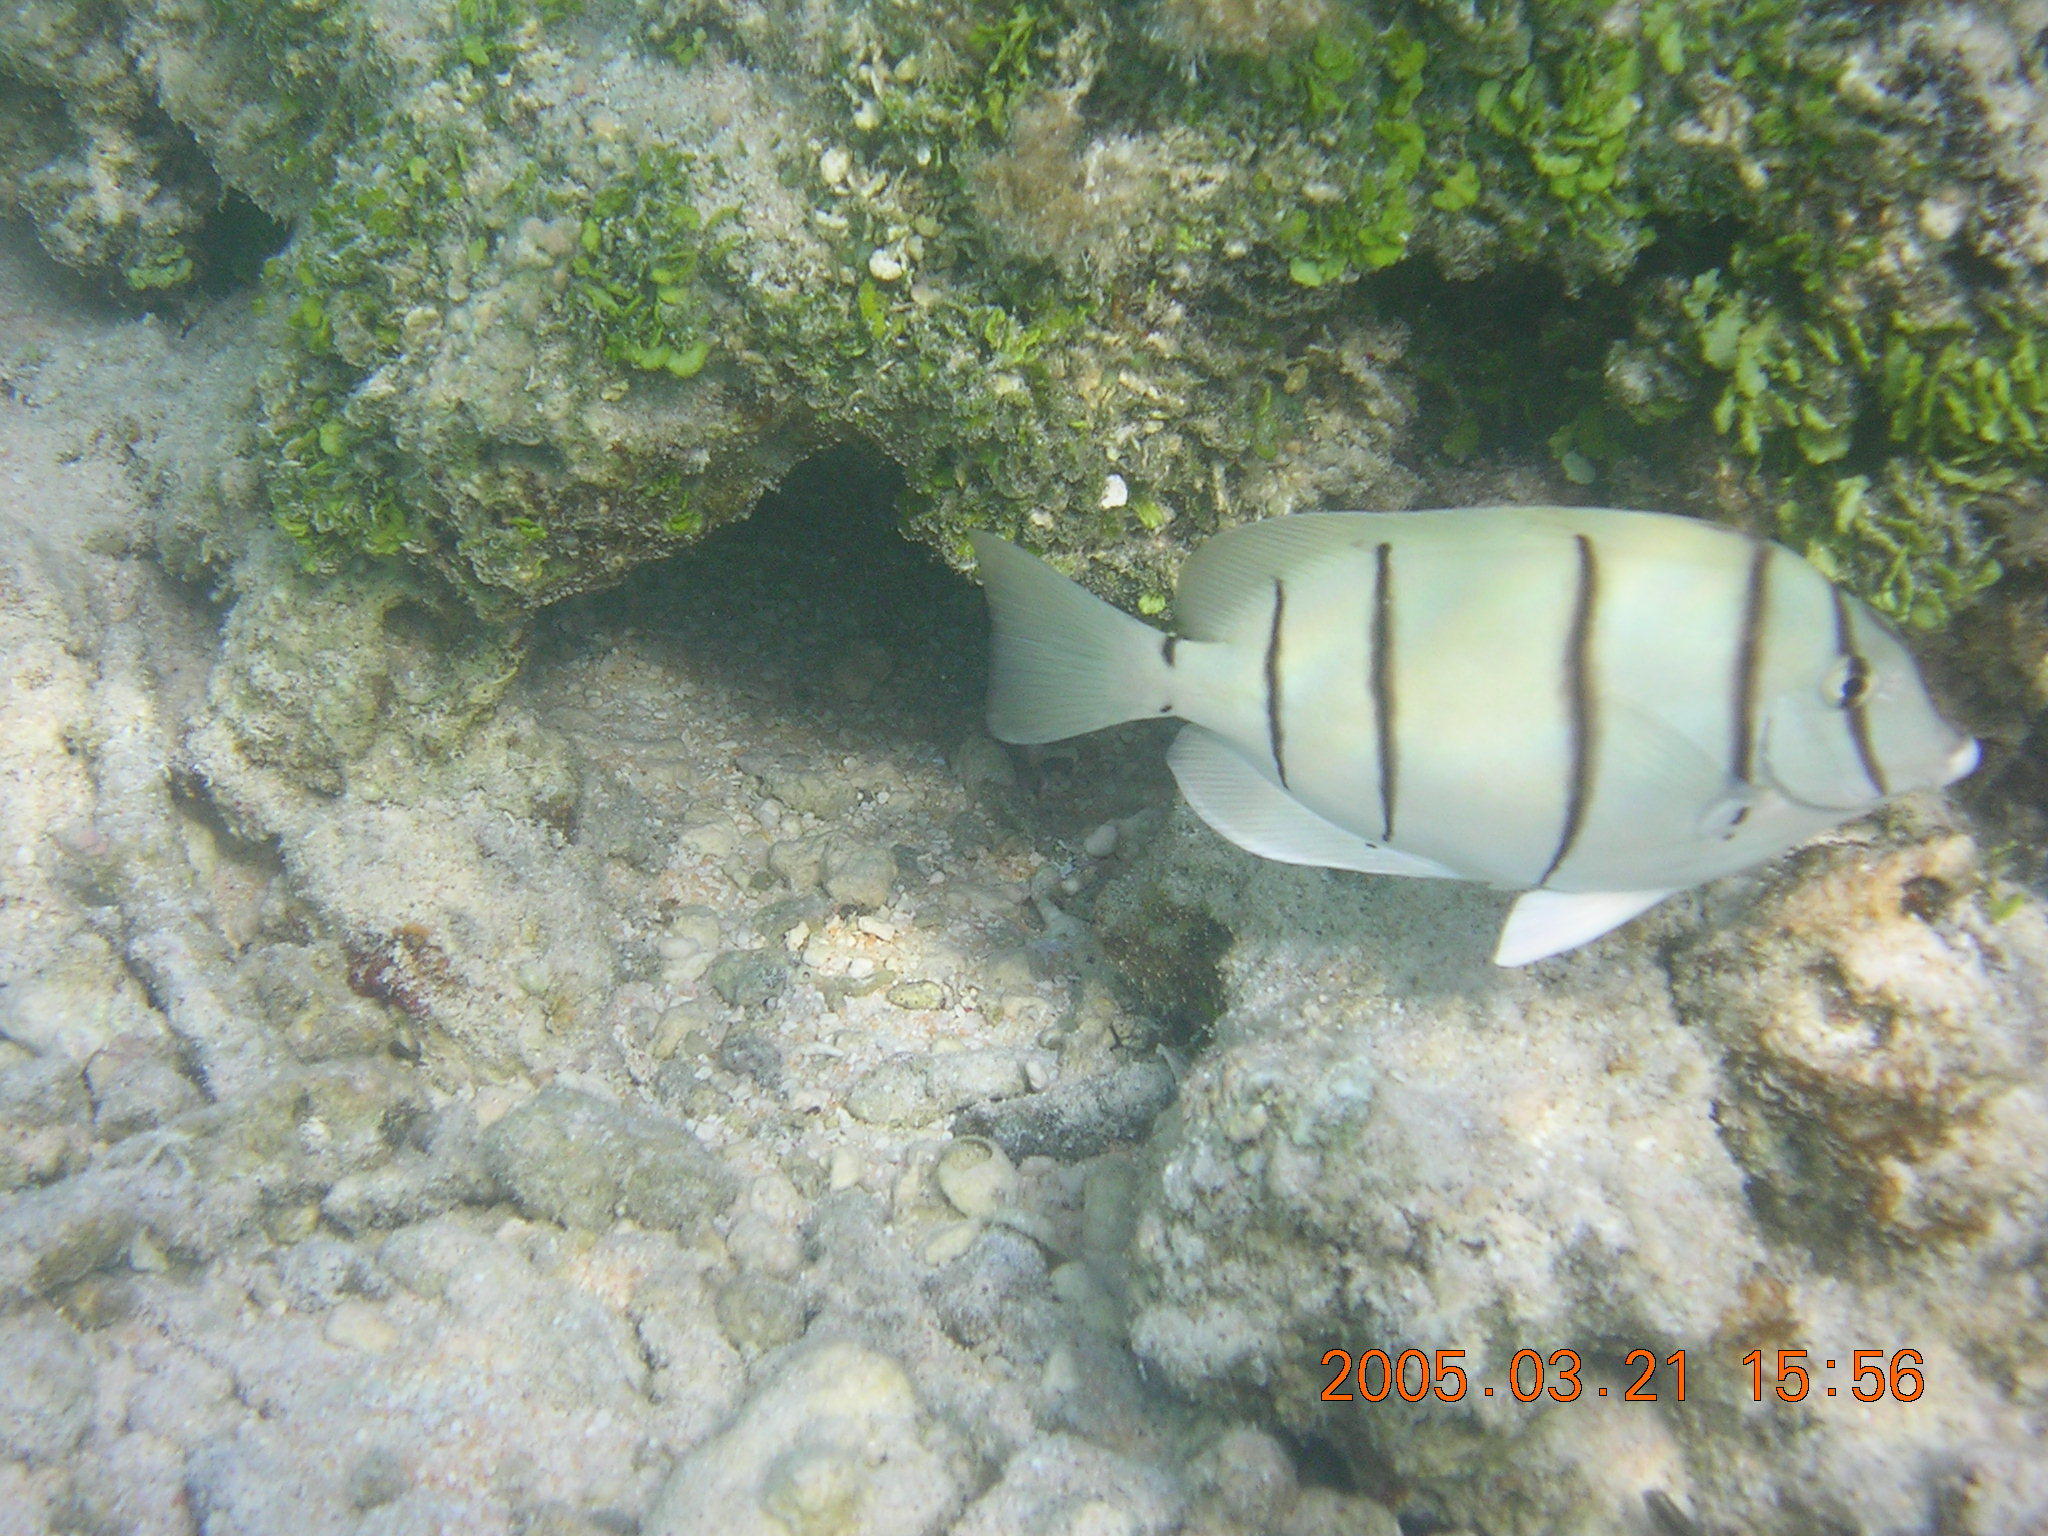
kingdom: Animalia
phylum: Chordata
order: Perciformes
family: Acanthuridae
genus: Acanthurus
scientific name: Acanthurus triostegus
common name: Convict surgeonfish
